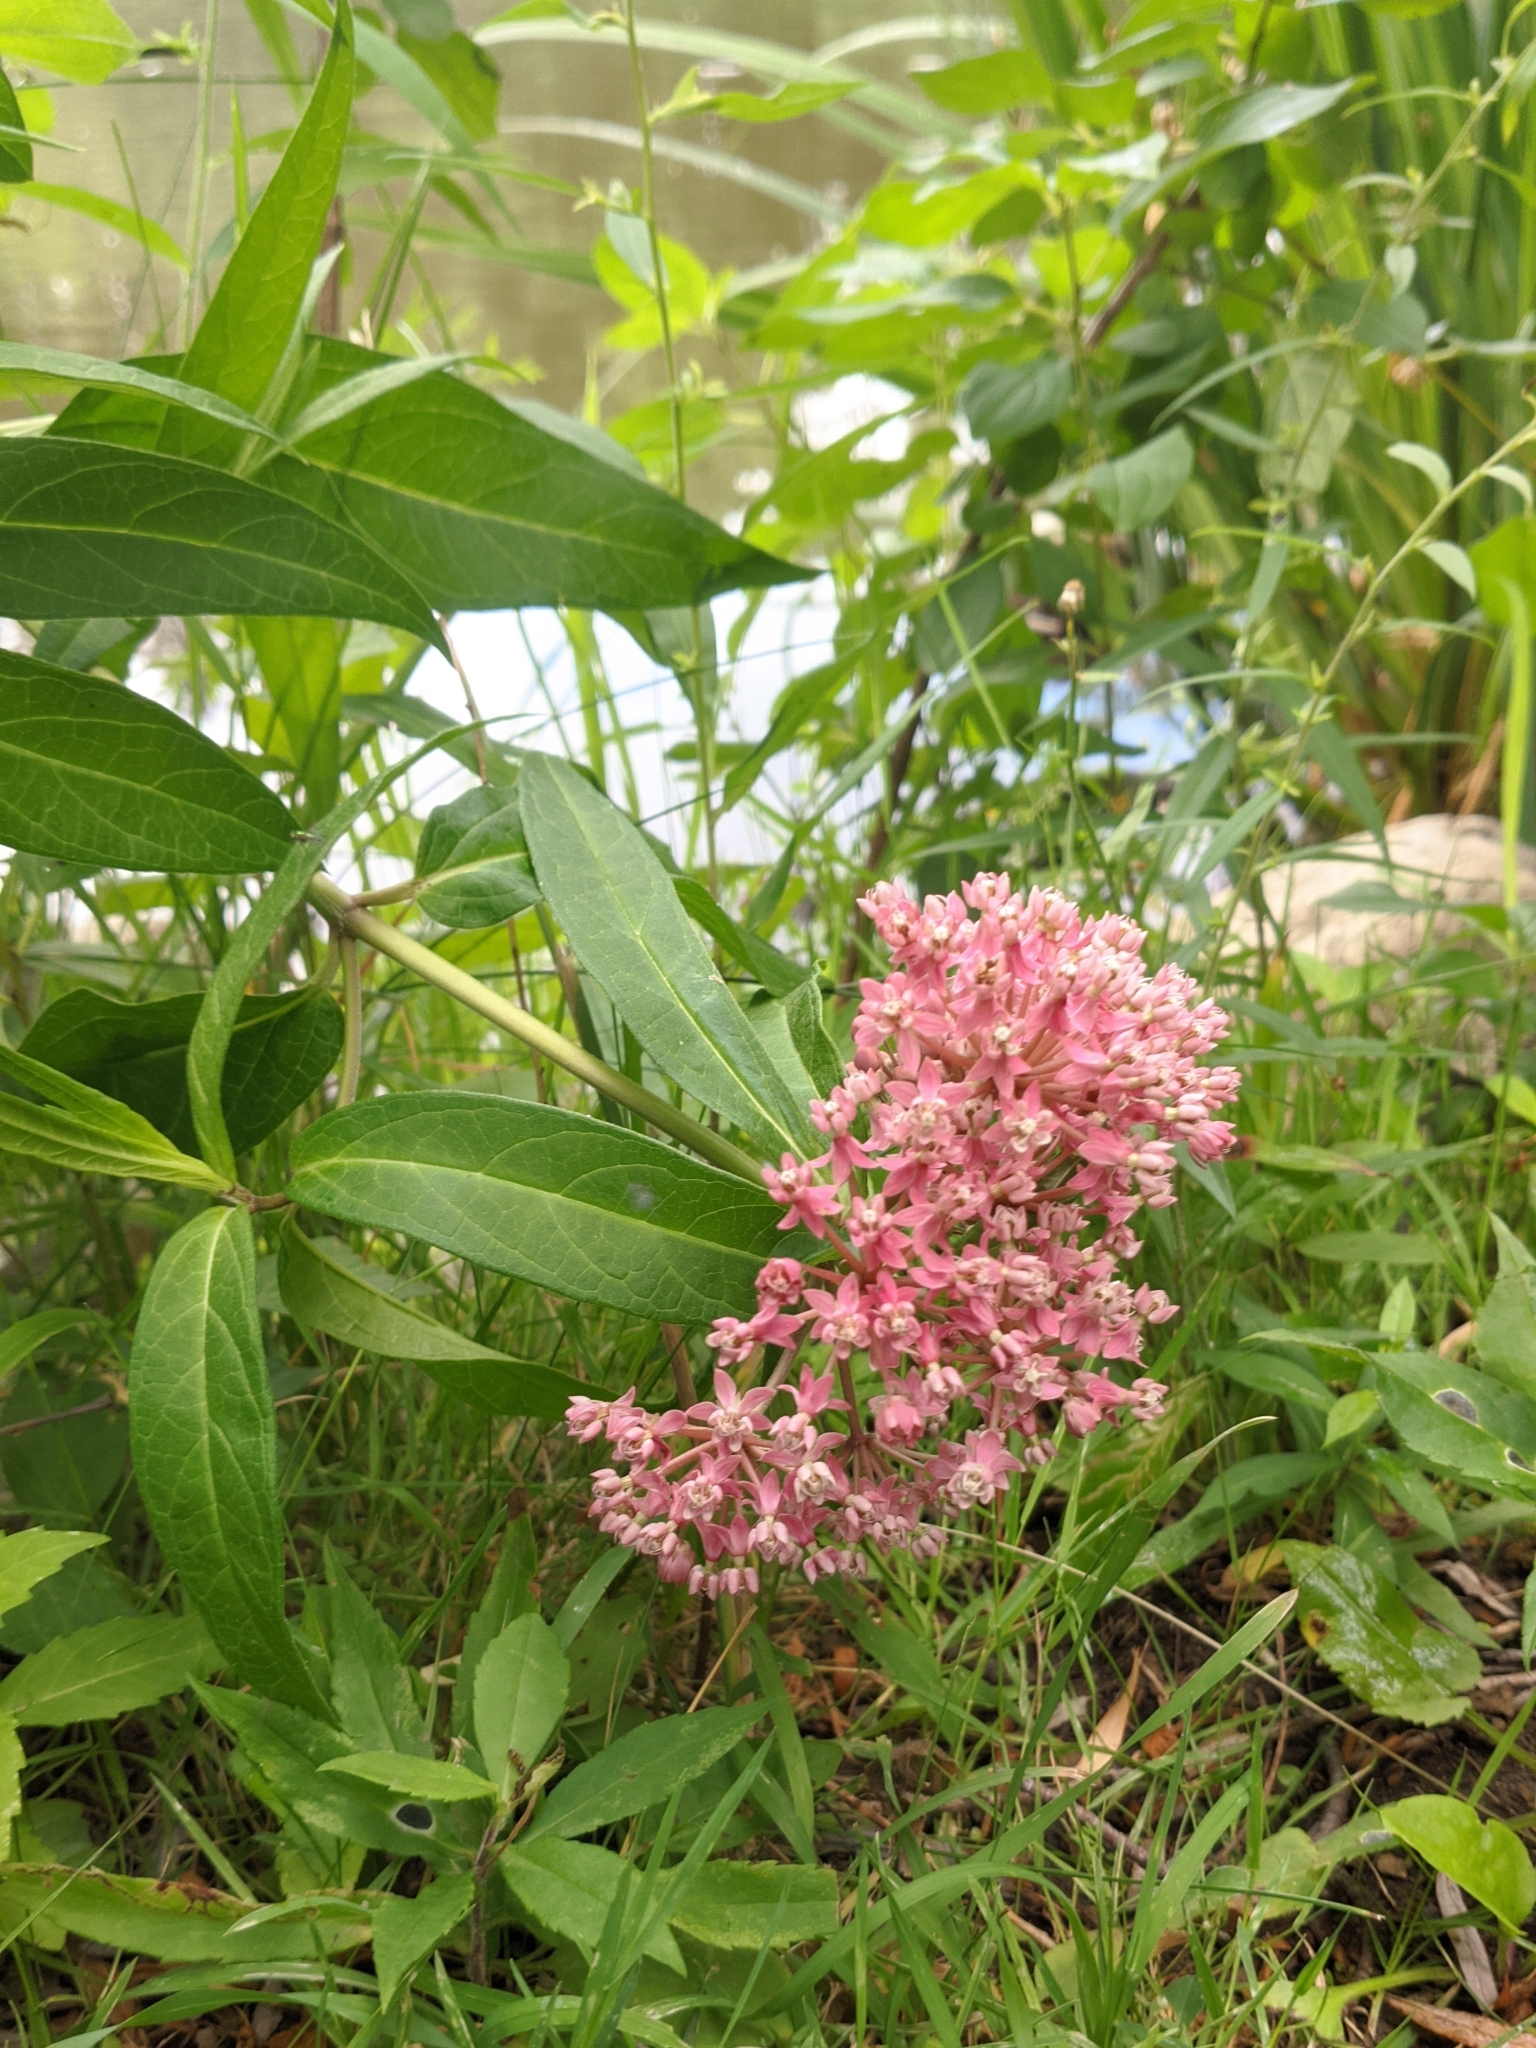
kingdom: Plantae
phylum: Tracheophyta
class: Magnoliopsida
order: Gentianales
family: Apocynaceae
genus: Asclepias
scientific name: Asclepias incarnata
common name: Swamp milkweed
